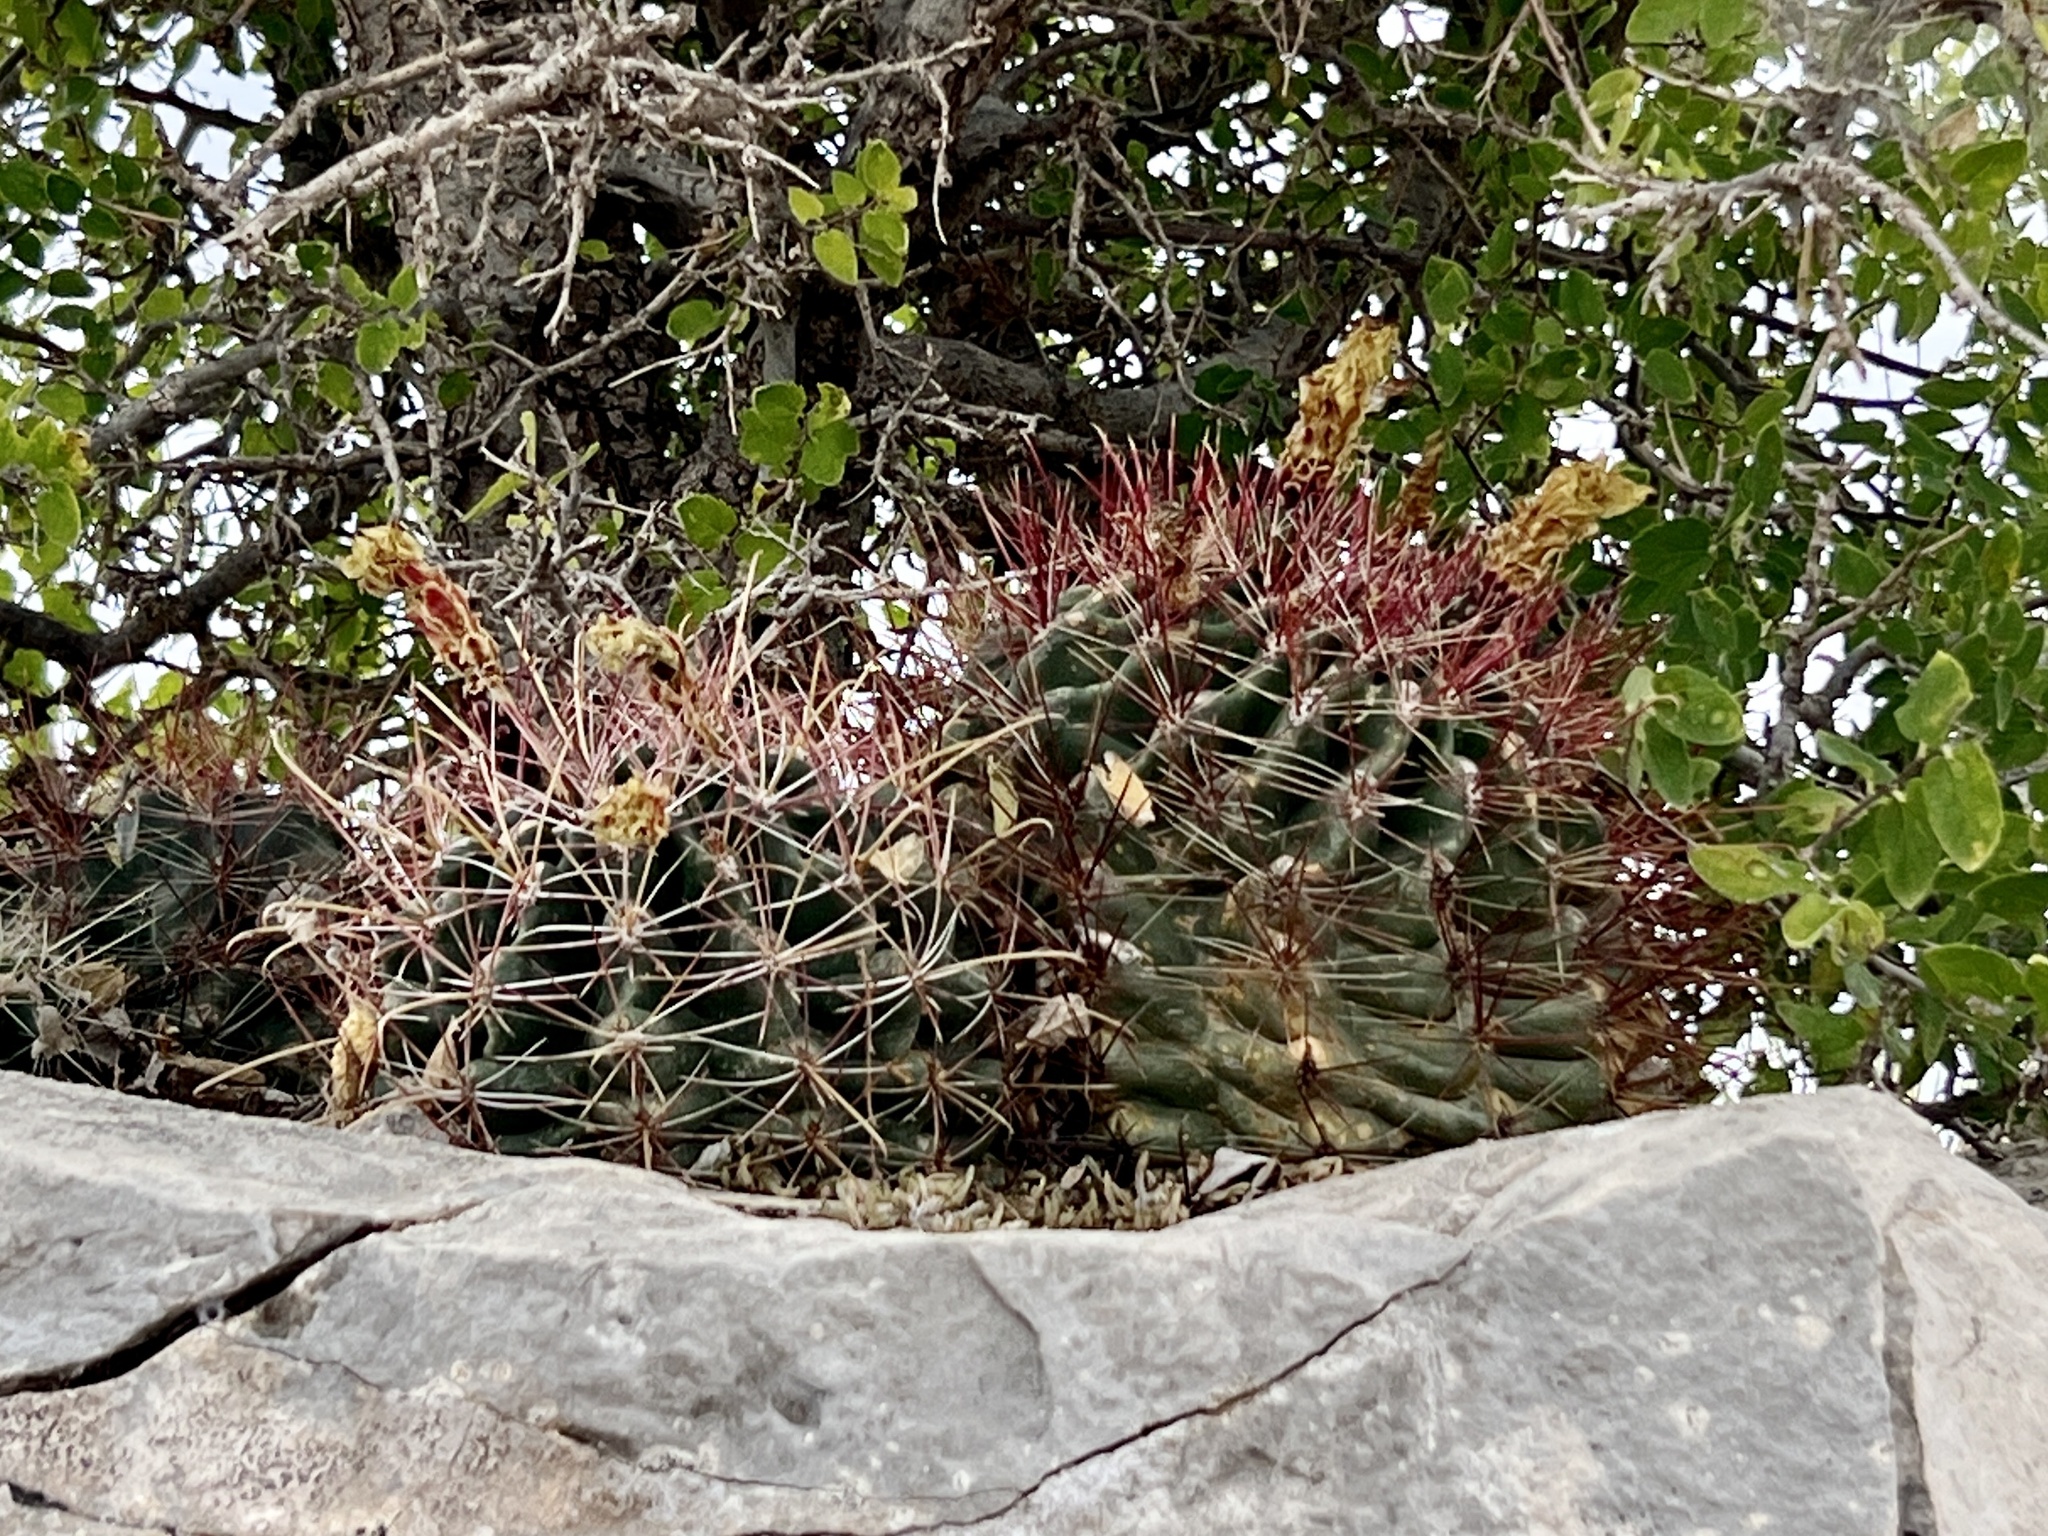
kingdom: Plantae
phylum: Tracheophyta
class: Magnoliopsida
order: Caryophyllales
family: Cactaceae
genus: Bisnaga
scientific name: Bisnaga hamatacantha
